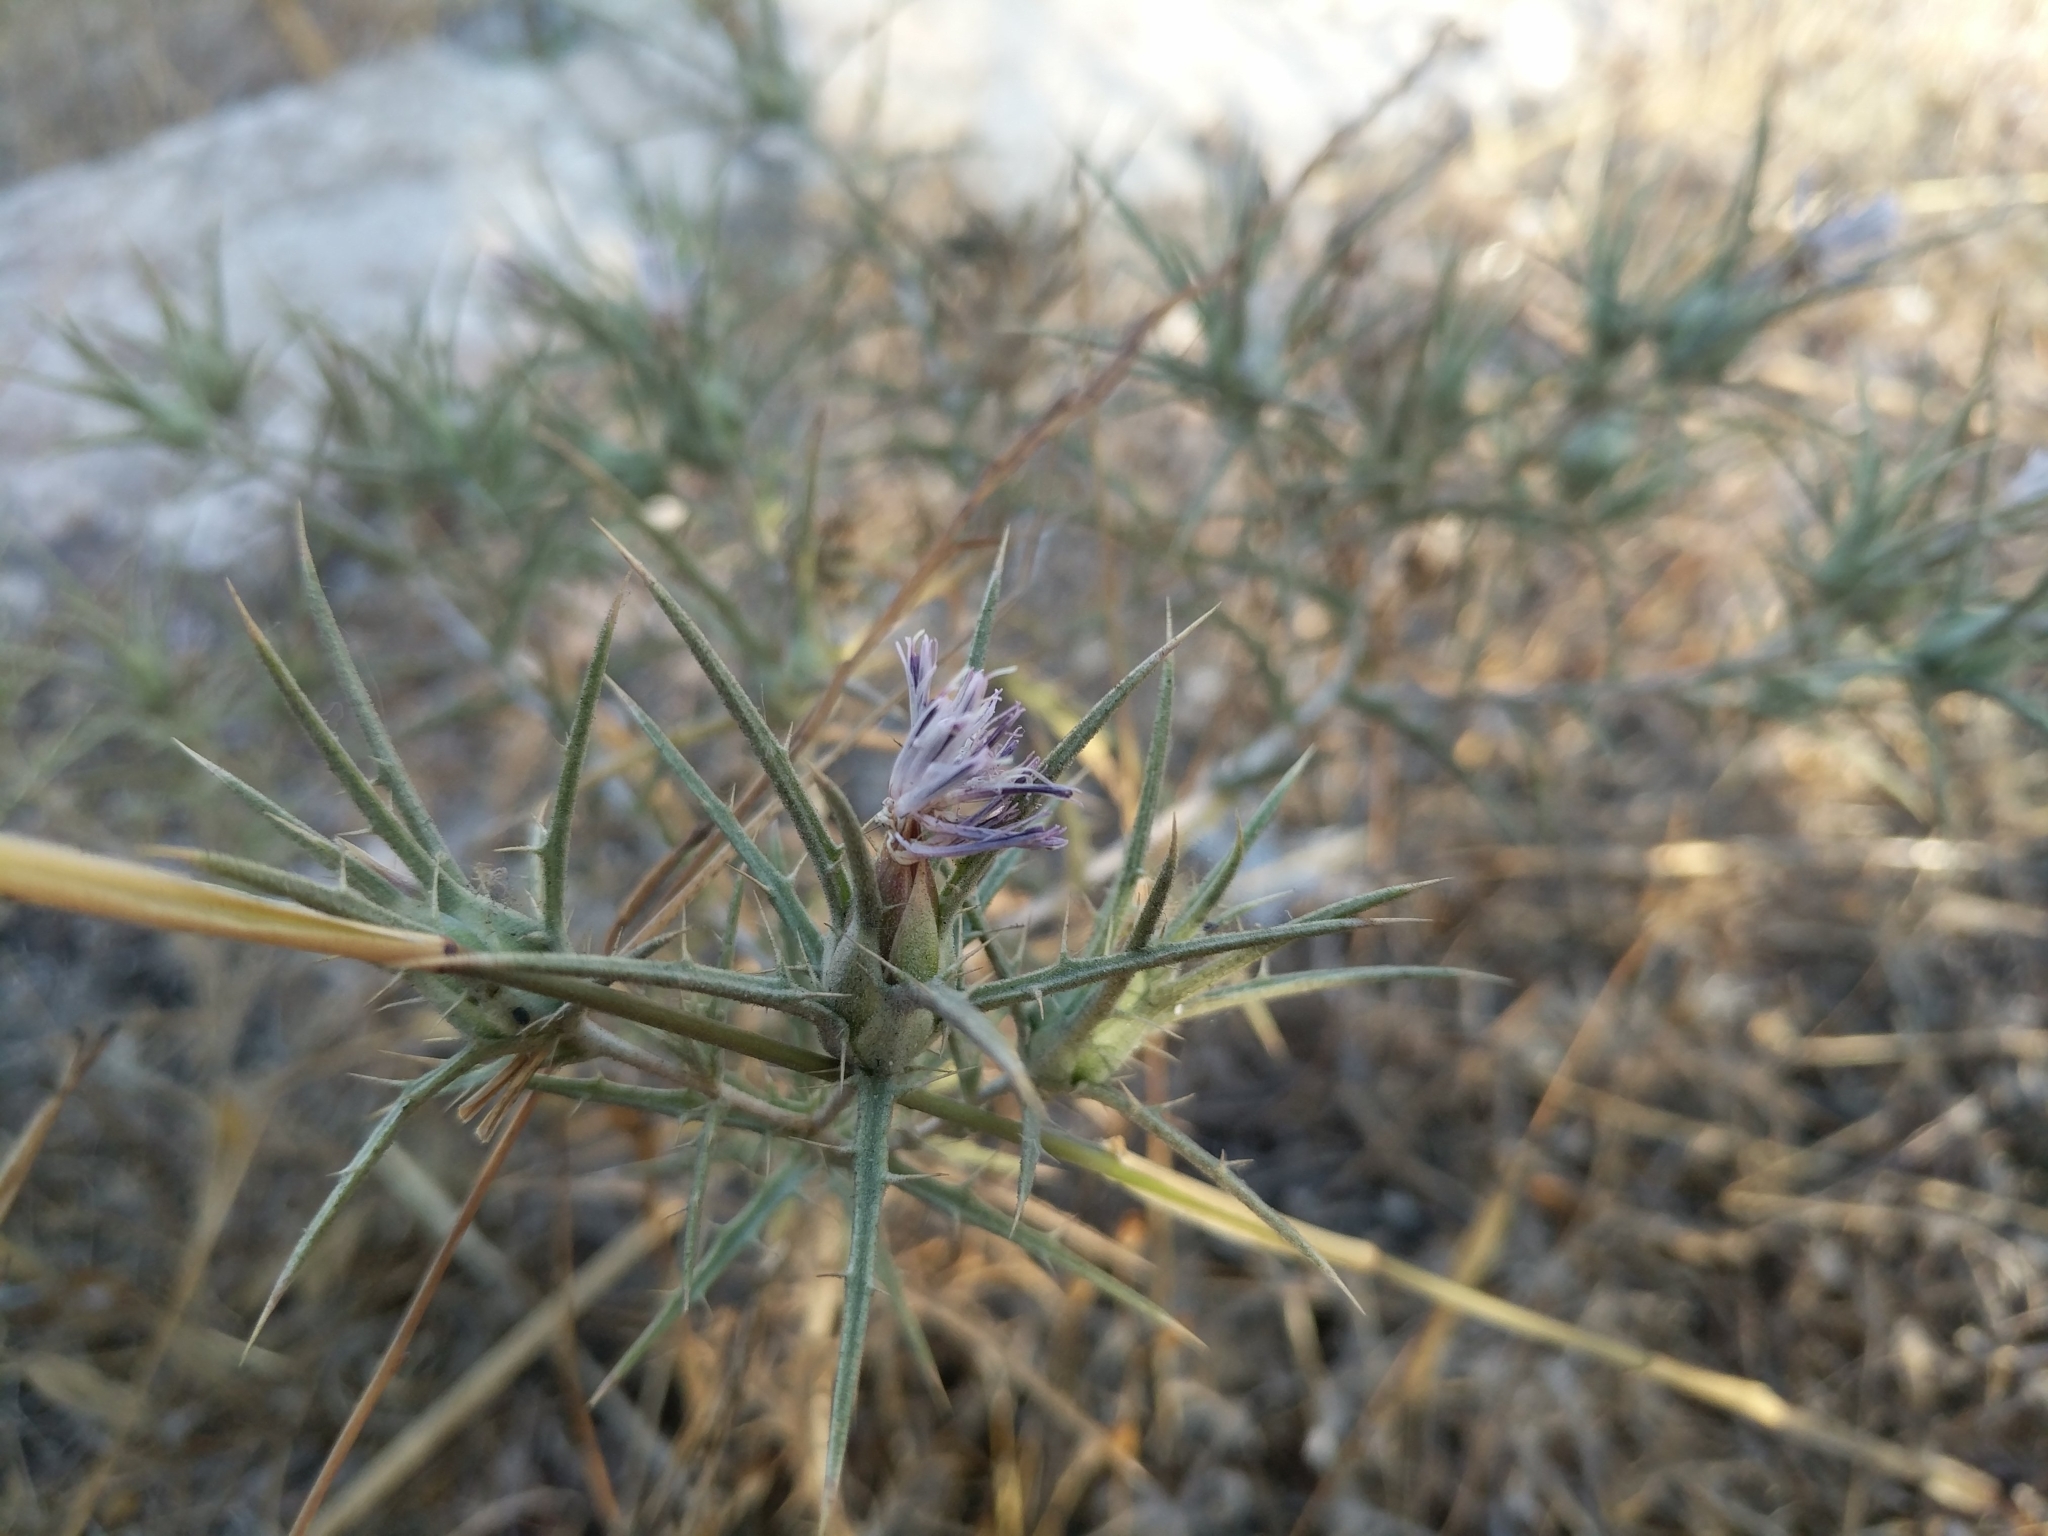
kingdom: Plantae
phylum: Tracheophyta
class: Magnoliopsida
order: Asterales
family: Asteraceae
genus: Carthamus
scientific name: Carthamus tenuis
